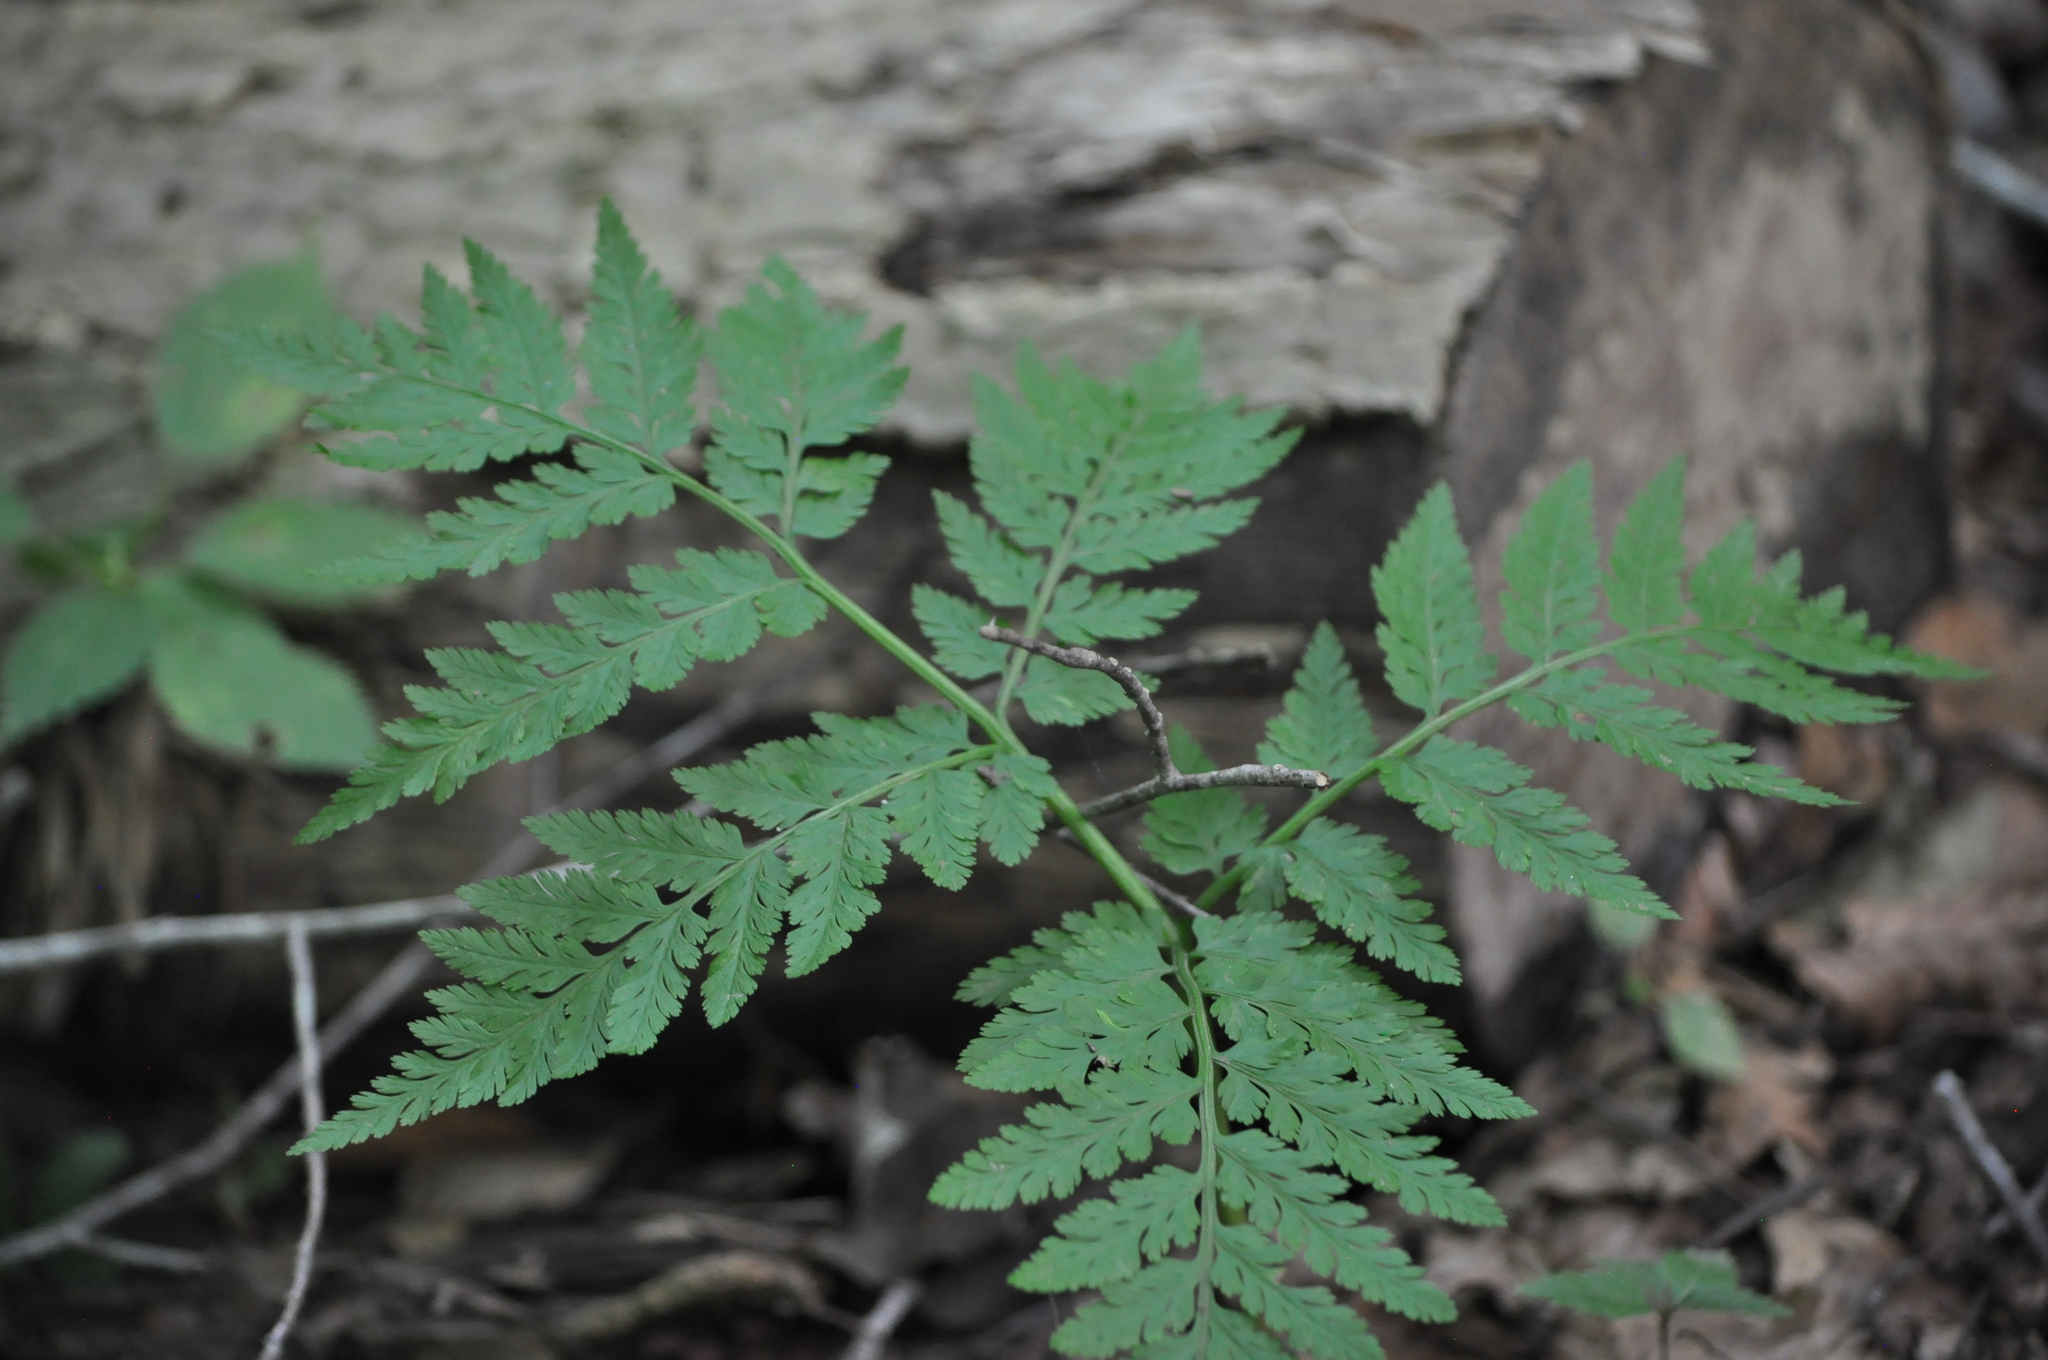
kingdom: Plantae
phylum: Tracheophyta
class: Polypodiopsida
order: Ophioglossales
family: Ophioglossaceae
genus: Botrypus
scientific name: Botrypus virginianus
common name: Common grapefern
